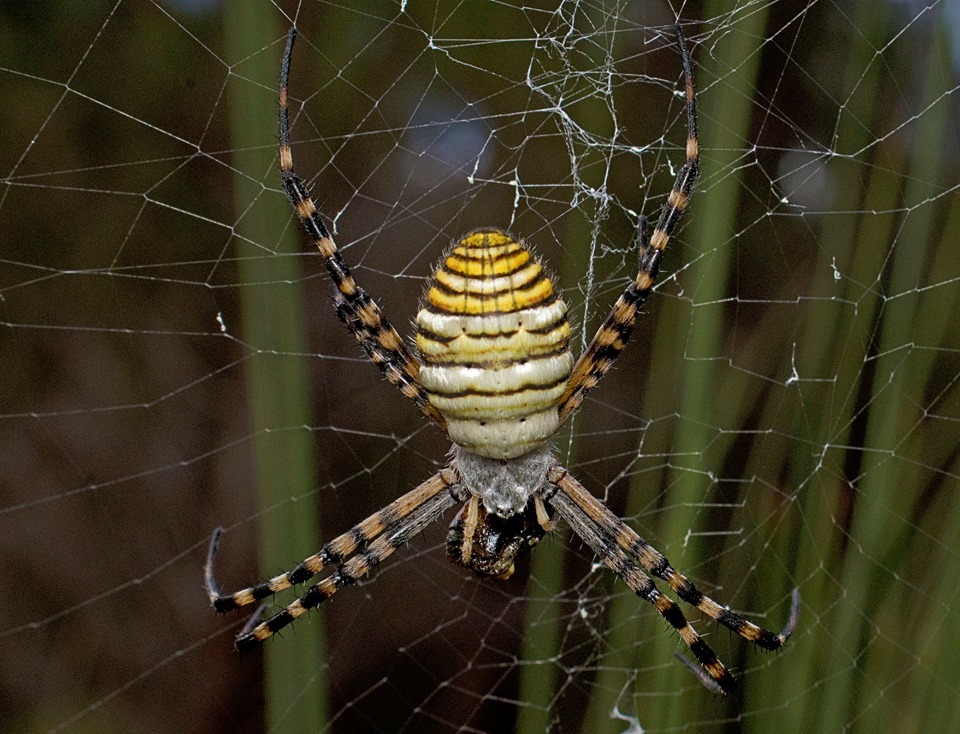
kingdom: Animalia
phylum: Arthropoda
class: Arachnida
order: Araneae
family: Araneidae
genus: Argiope
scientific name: Argiope trifasciata
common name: Banded garden spider
